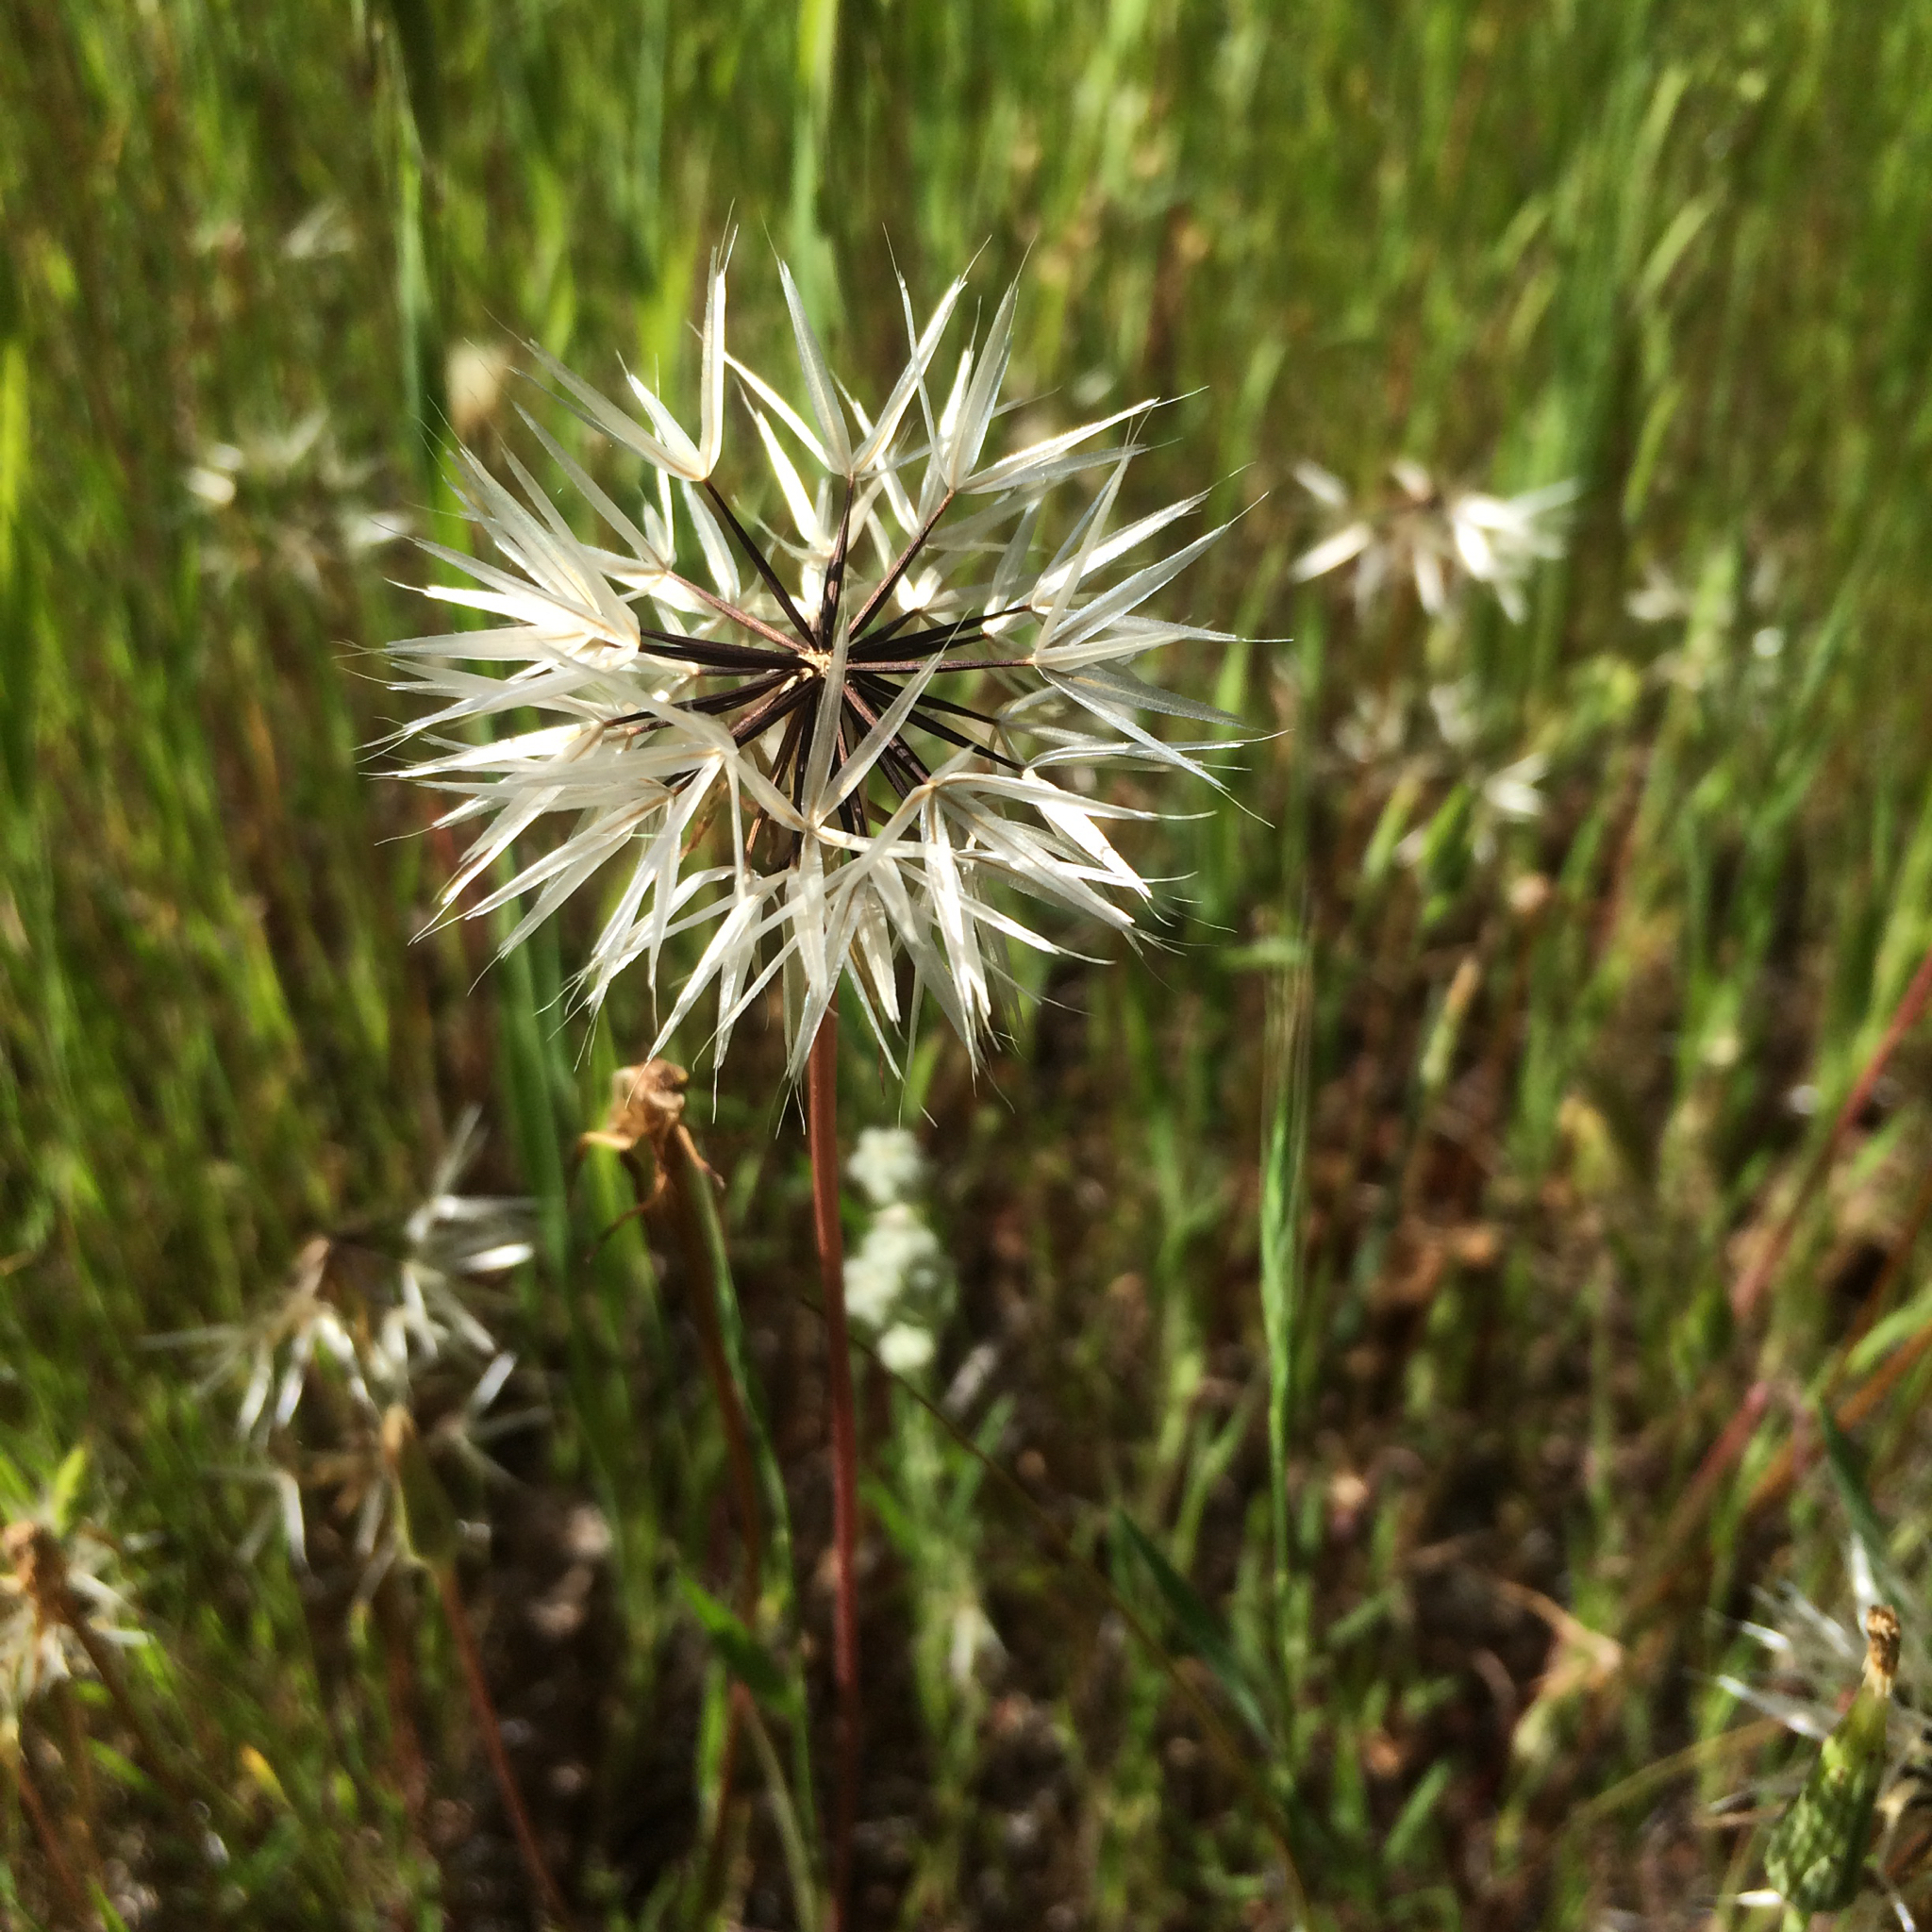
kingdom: Plantae
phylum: Tracheophyta
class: Magnoliopsida
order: Asterales
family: Asteraceae
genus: Microseris
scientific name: Microseris lindleyi
